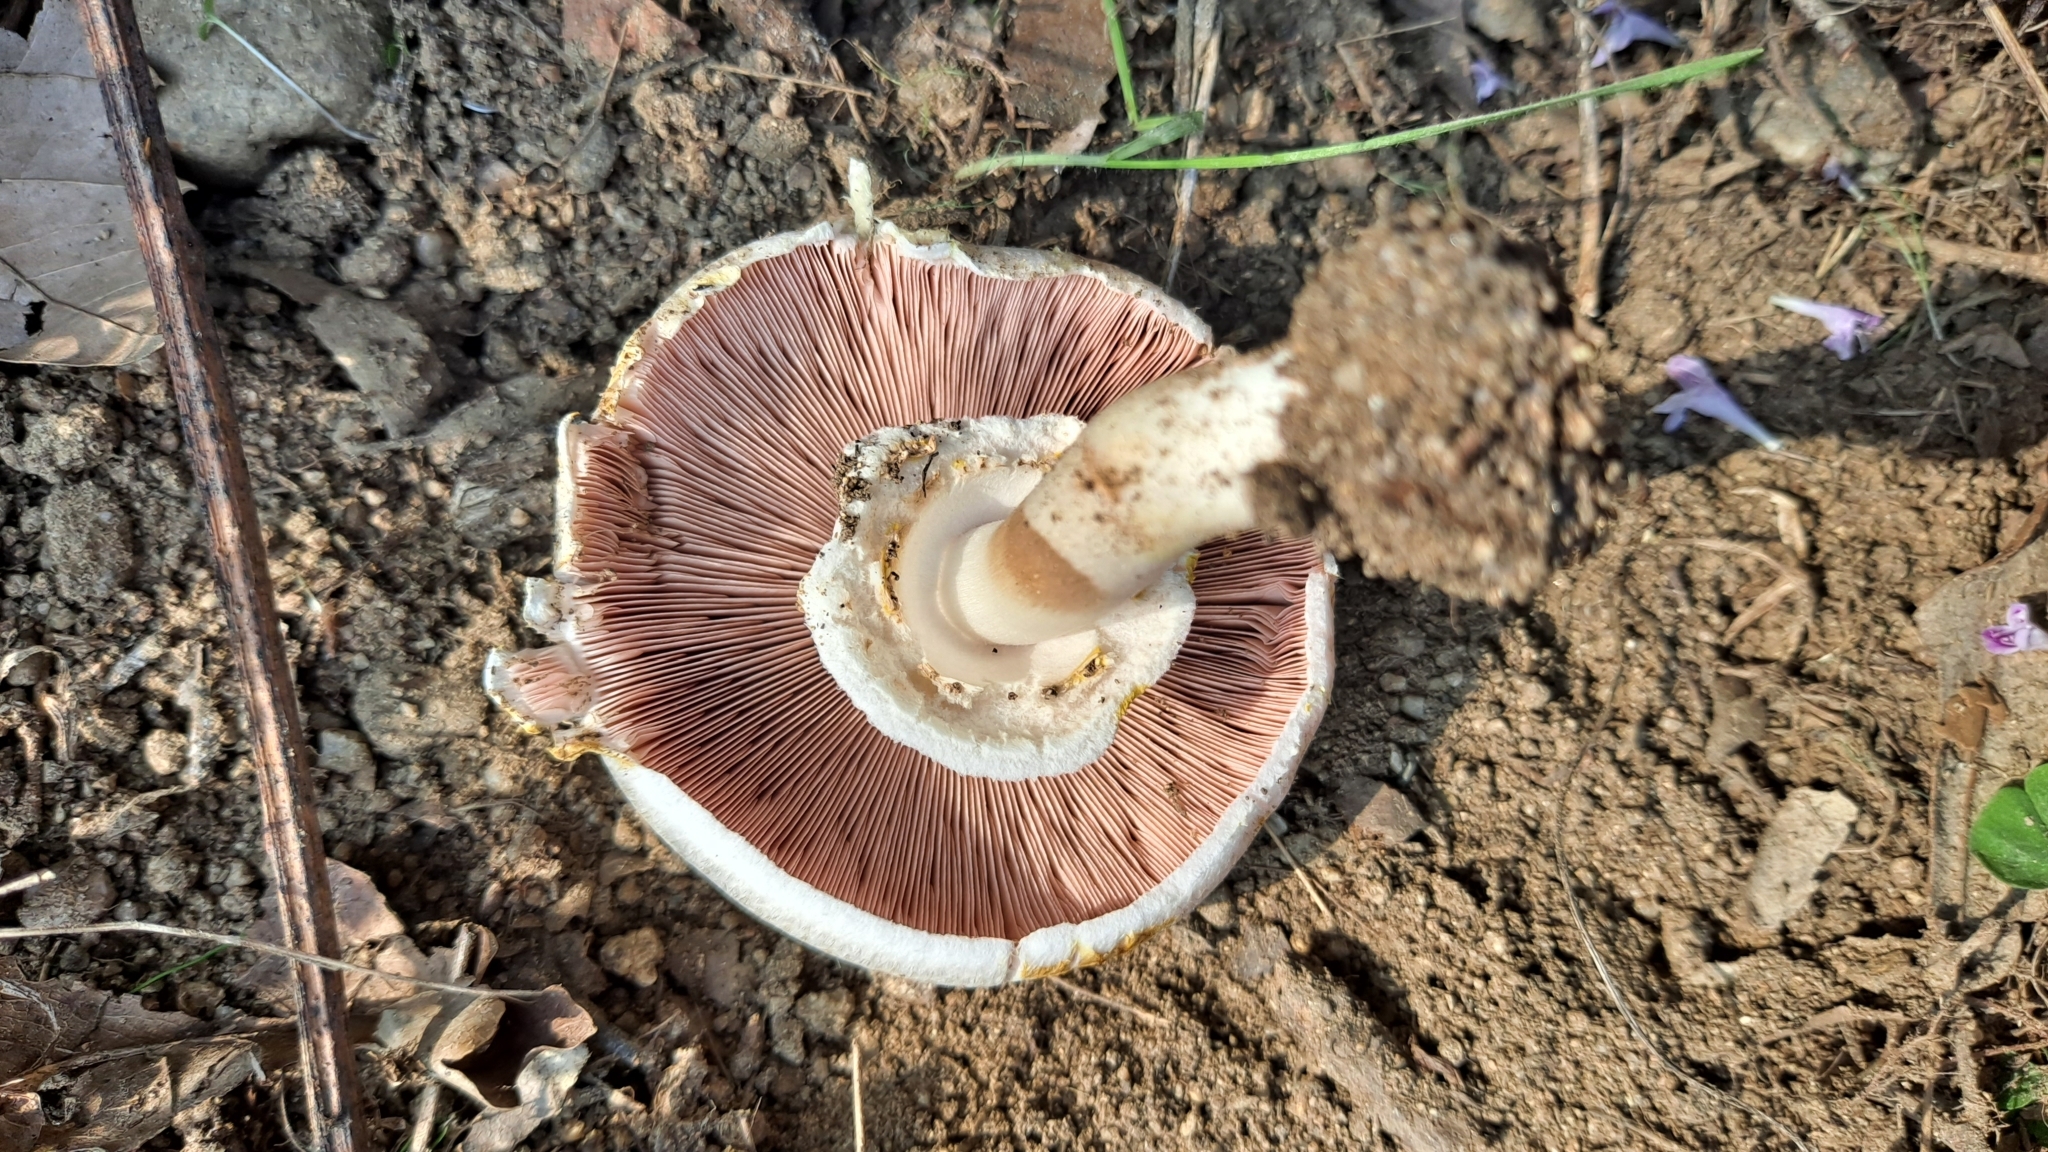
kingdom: Fungi
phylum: Basidiomycota
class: Agaricomycetes
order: Agaricales
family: Agaricaceae
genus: Agaricus
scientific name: Agaricus campestris
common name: Field mushroom
